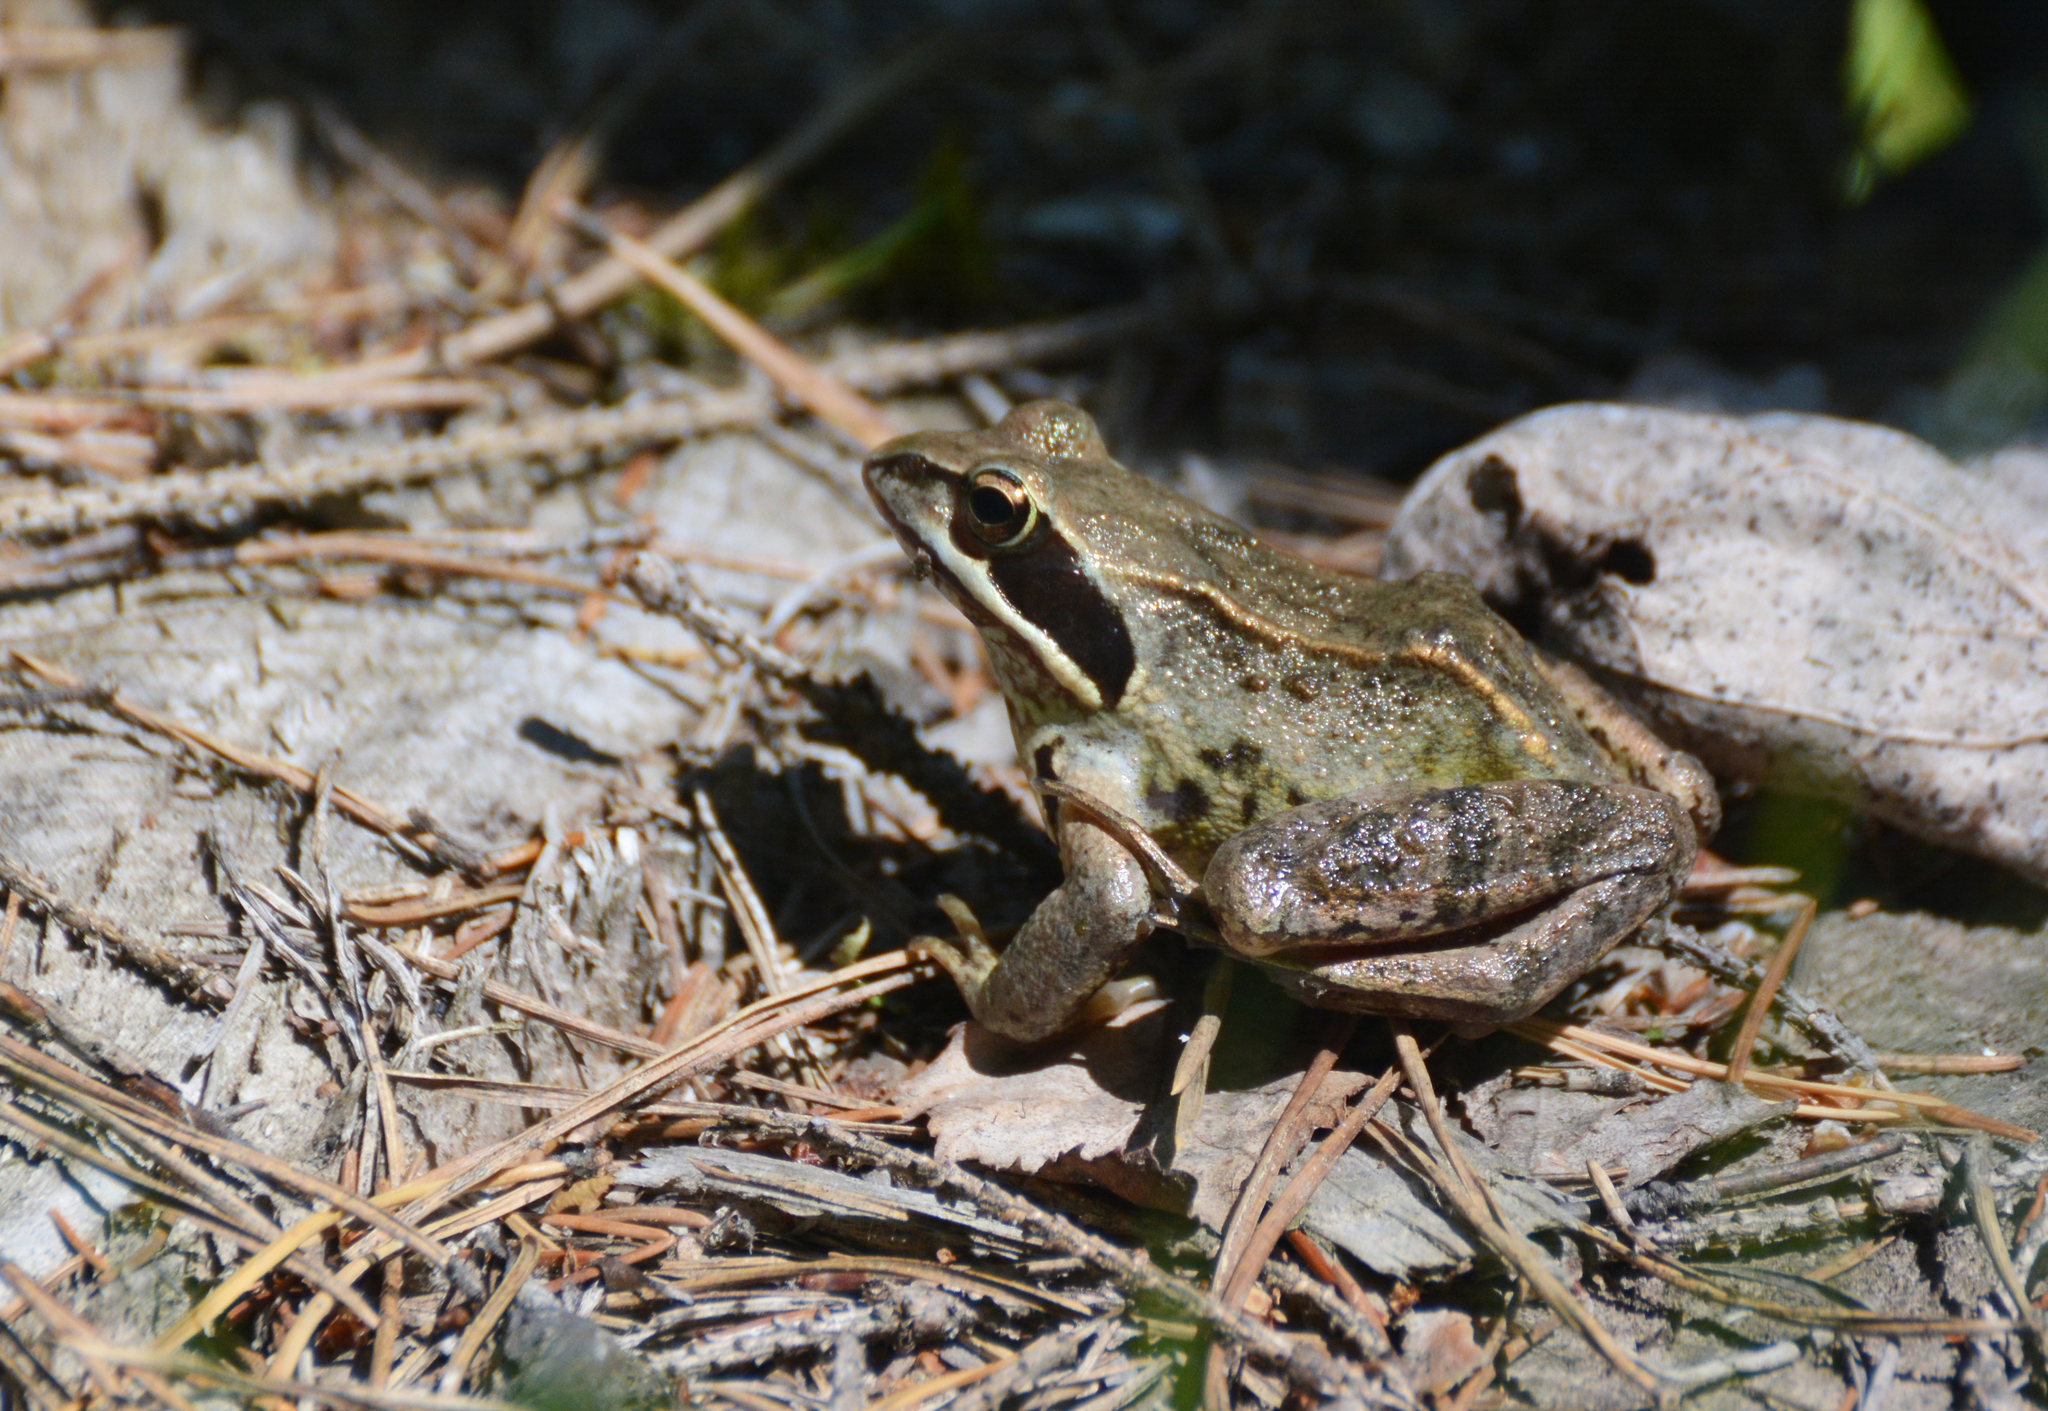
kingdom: Animalia
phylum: Chordata
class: Amphibia
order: Anura
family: Ranidae
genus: Rana
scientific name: Rana arvalis
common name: Moor frog
